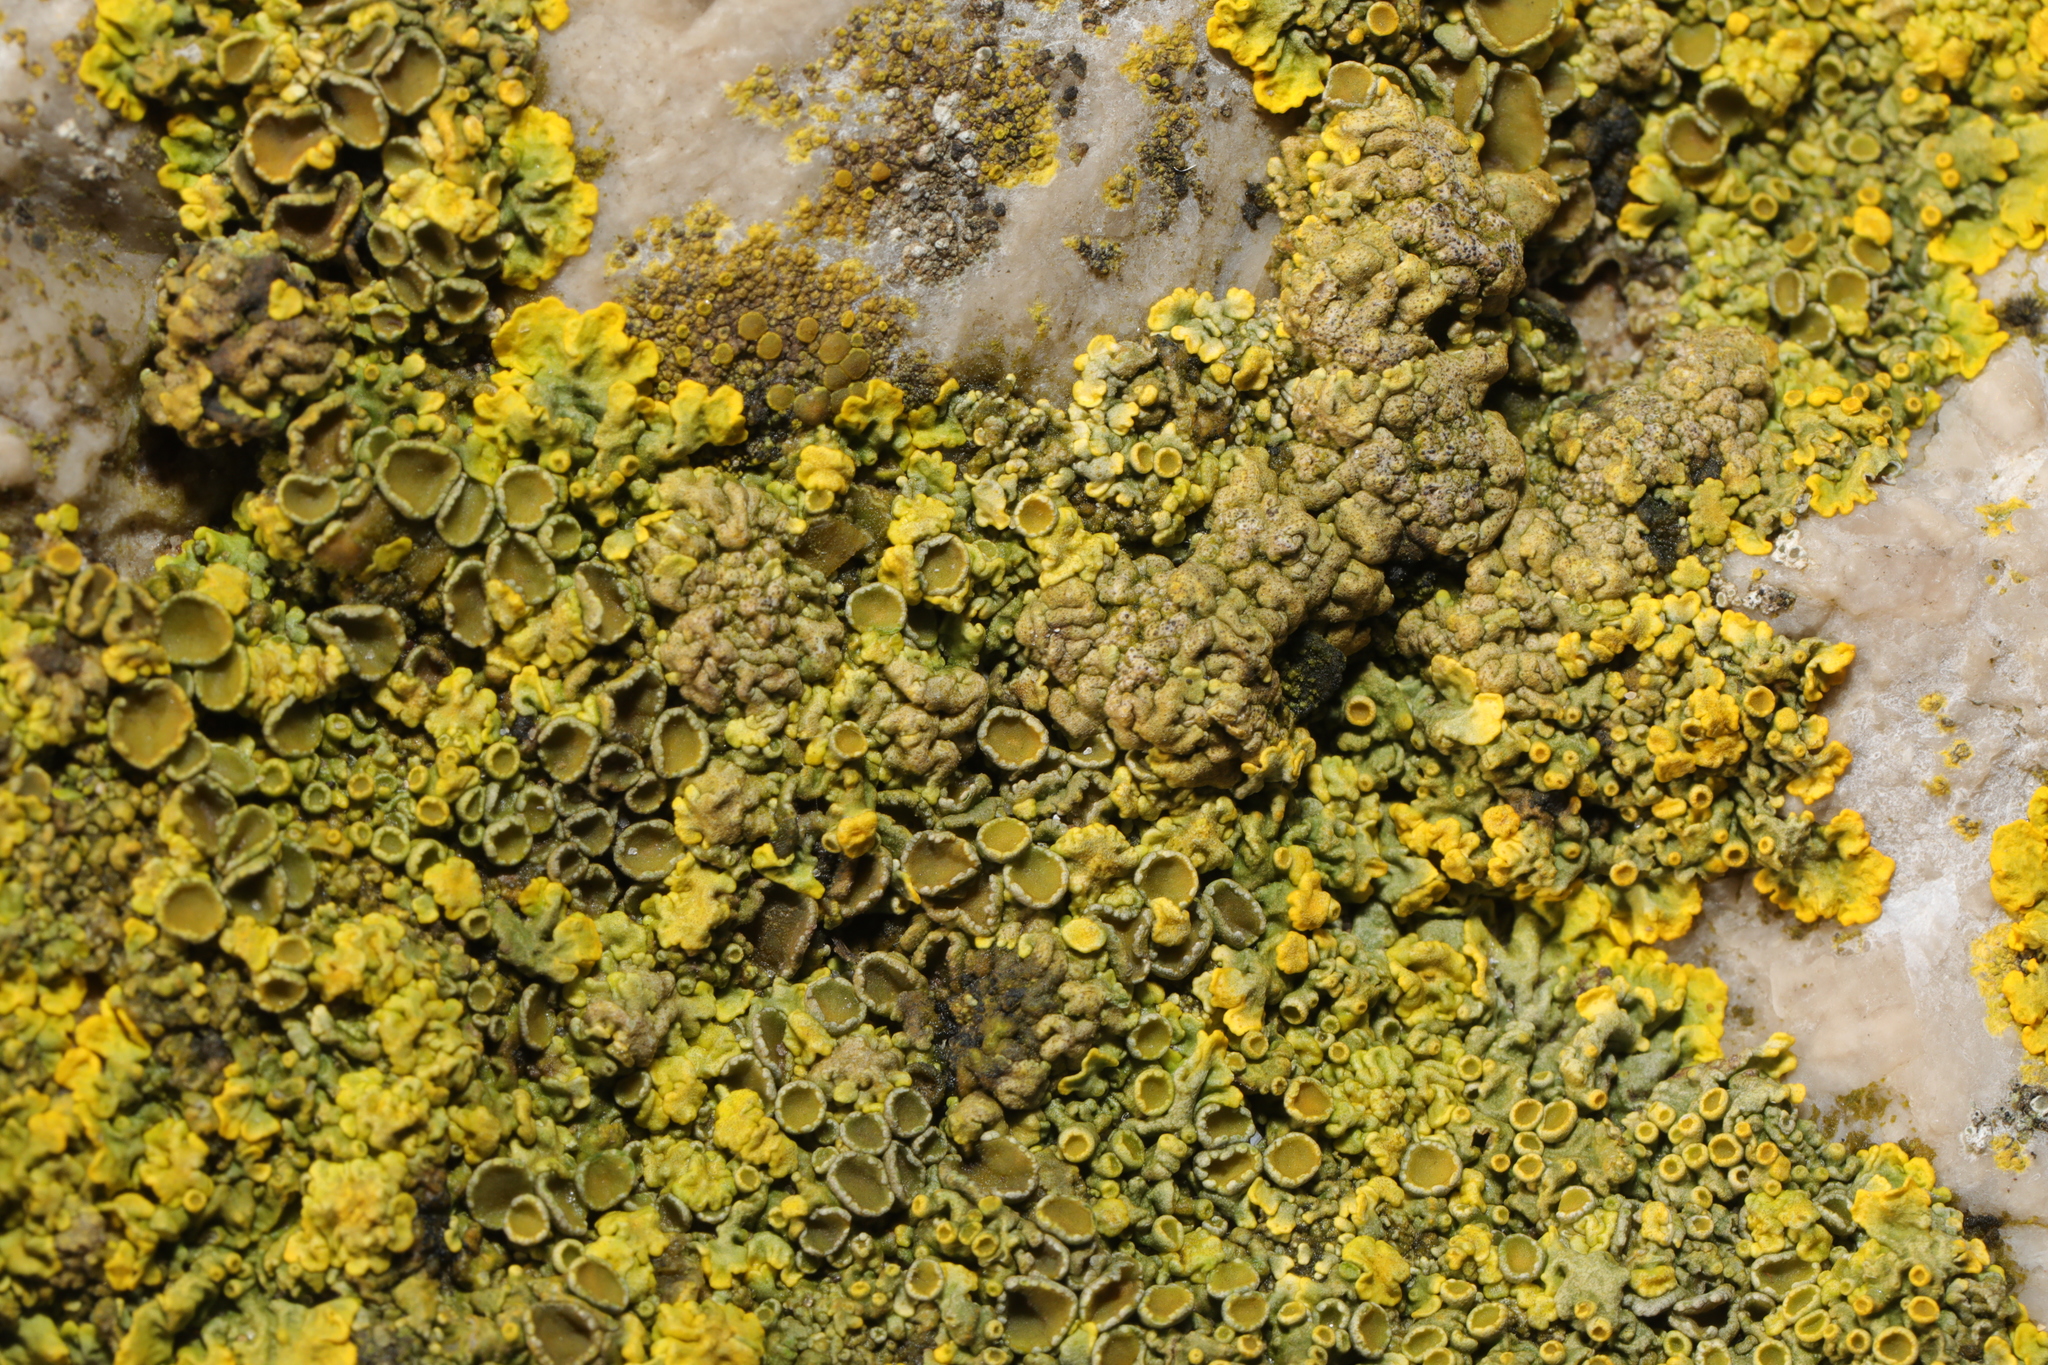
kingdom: Fungi
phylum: Ascomycota
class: Lecanoromycetes
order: Teloschistales
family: Teloschistaceae
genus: Xanthoria
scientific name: Xanthoria parietina
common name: Common orange lichen
